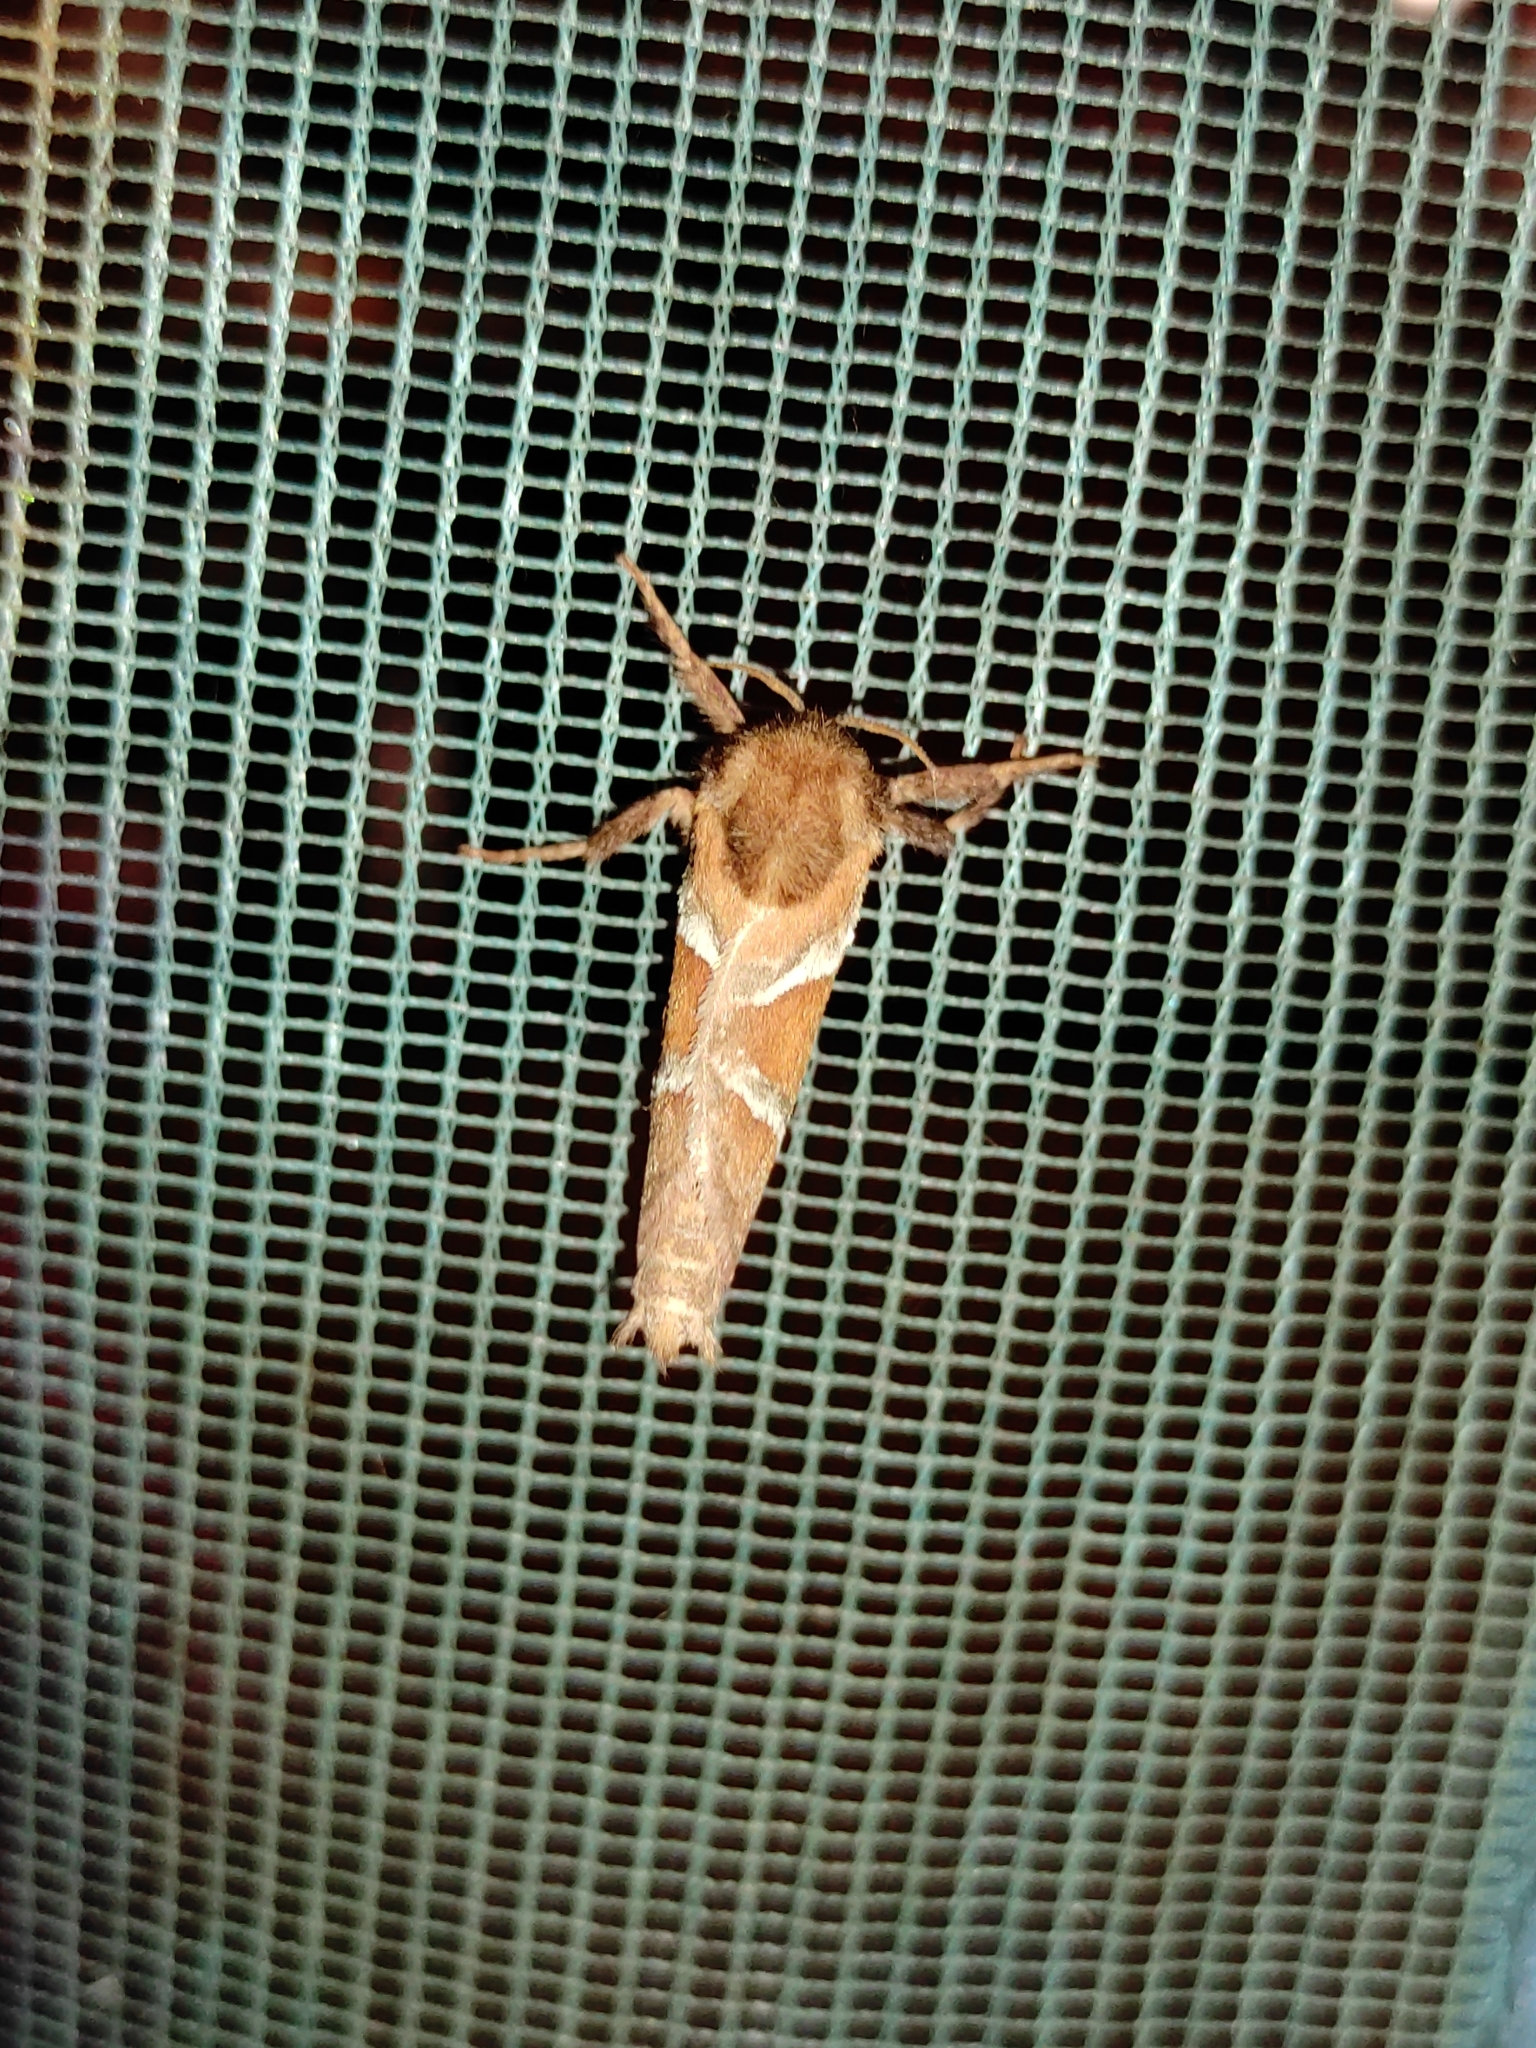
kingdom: Animalia
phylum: Arthropoda
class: Insecta
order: Lepidoptera
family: Hepialidae
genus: Triodia
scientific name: Triodia sylvina
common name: Orange swift
